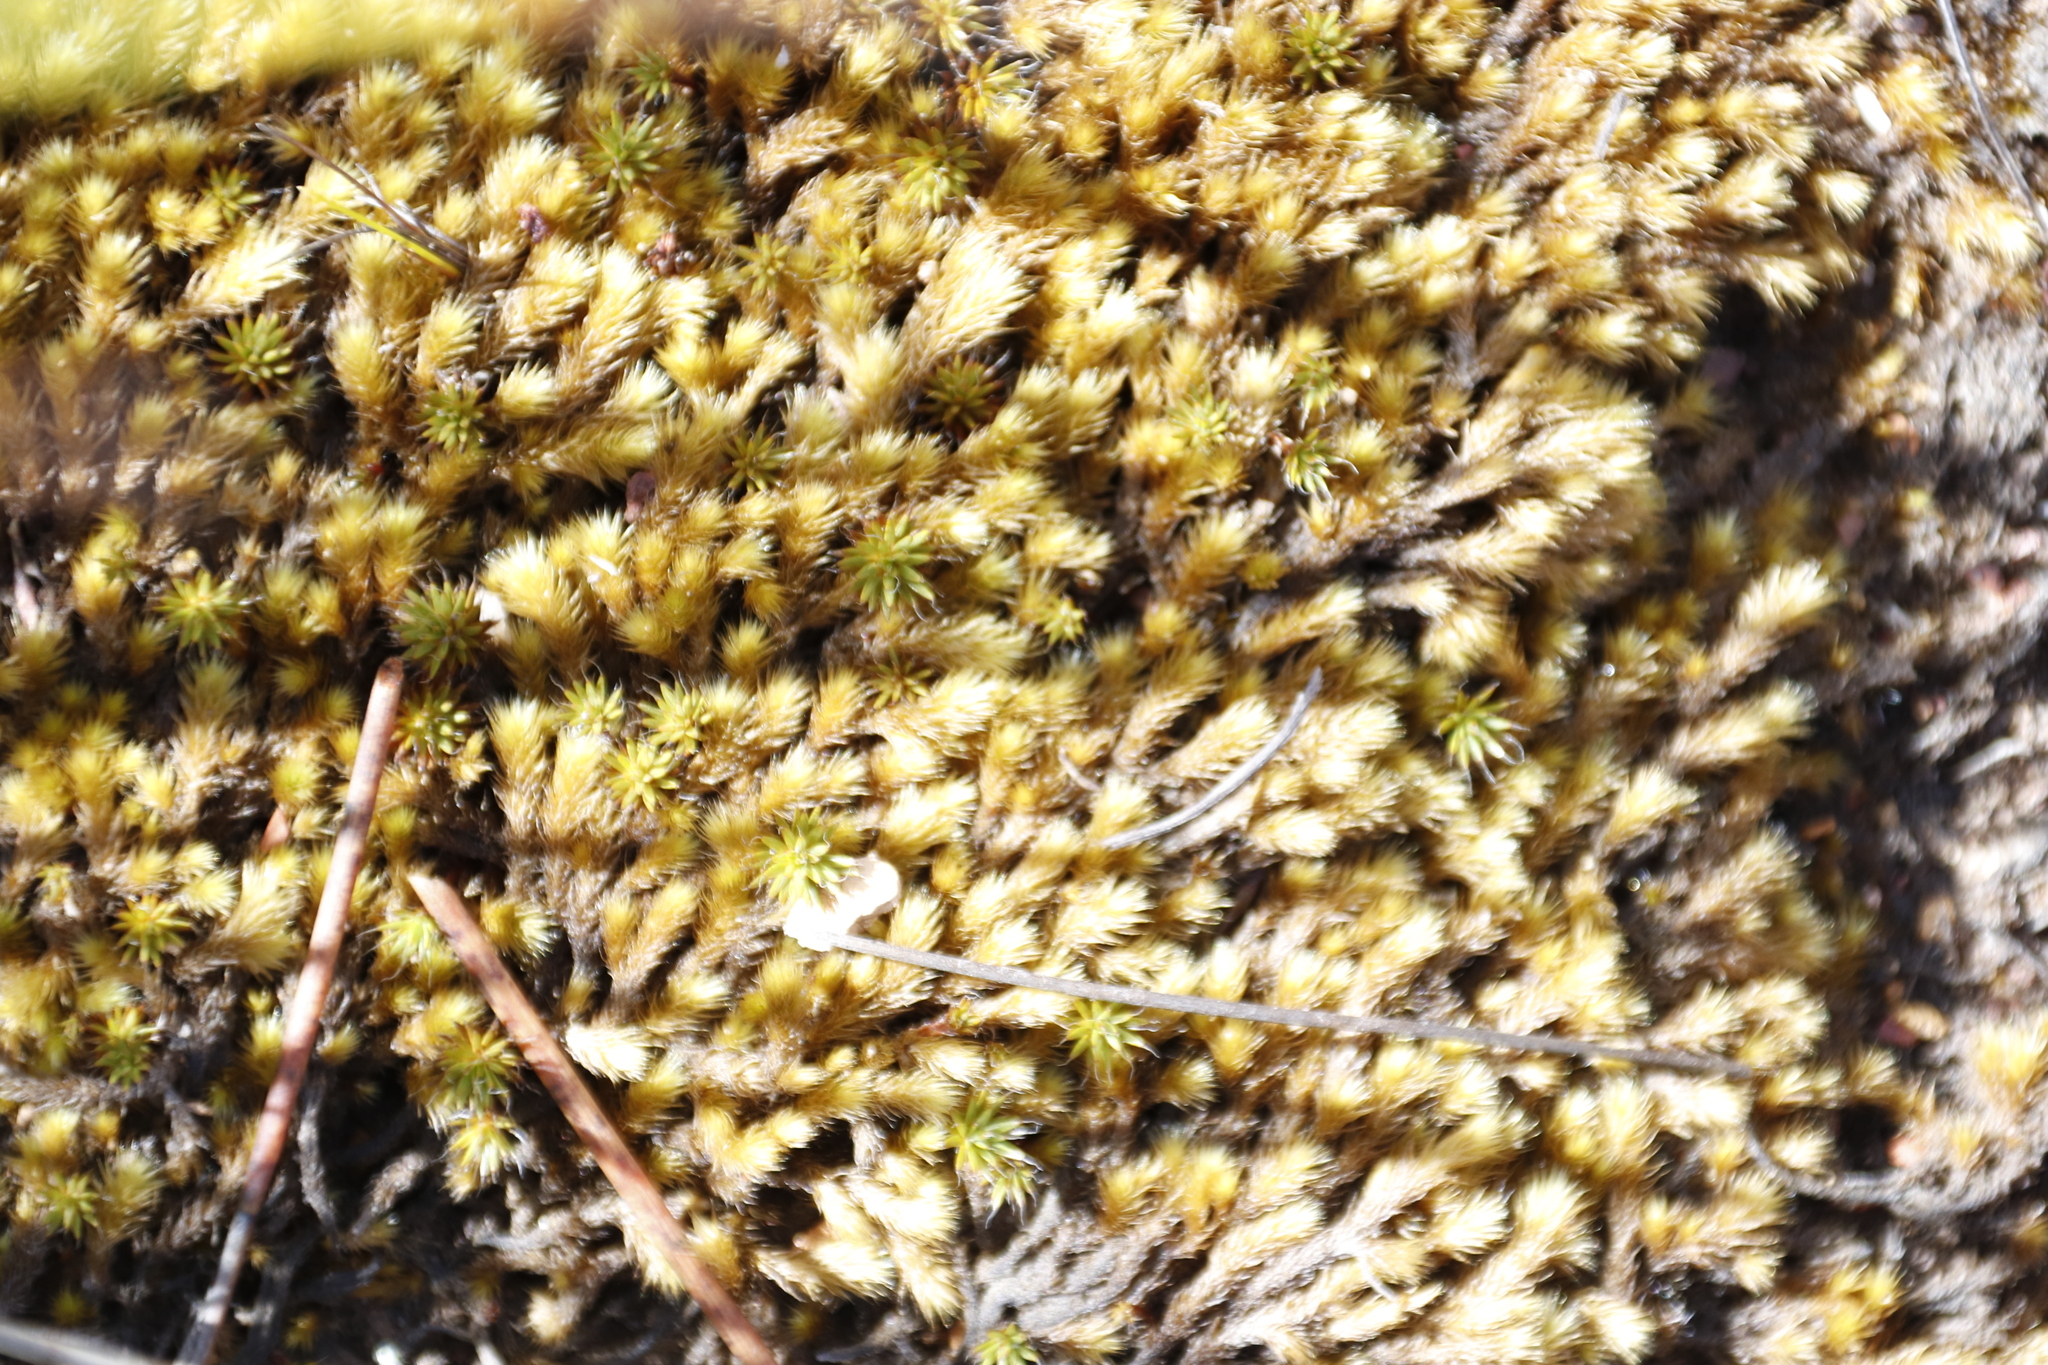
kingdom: Plantae
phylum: Bryophyta
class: Bryopsida
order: Bartramiales
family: Bartramiaceae
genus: Breutelia
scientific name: Breutelia substricta
